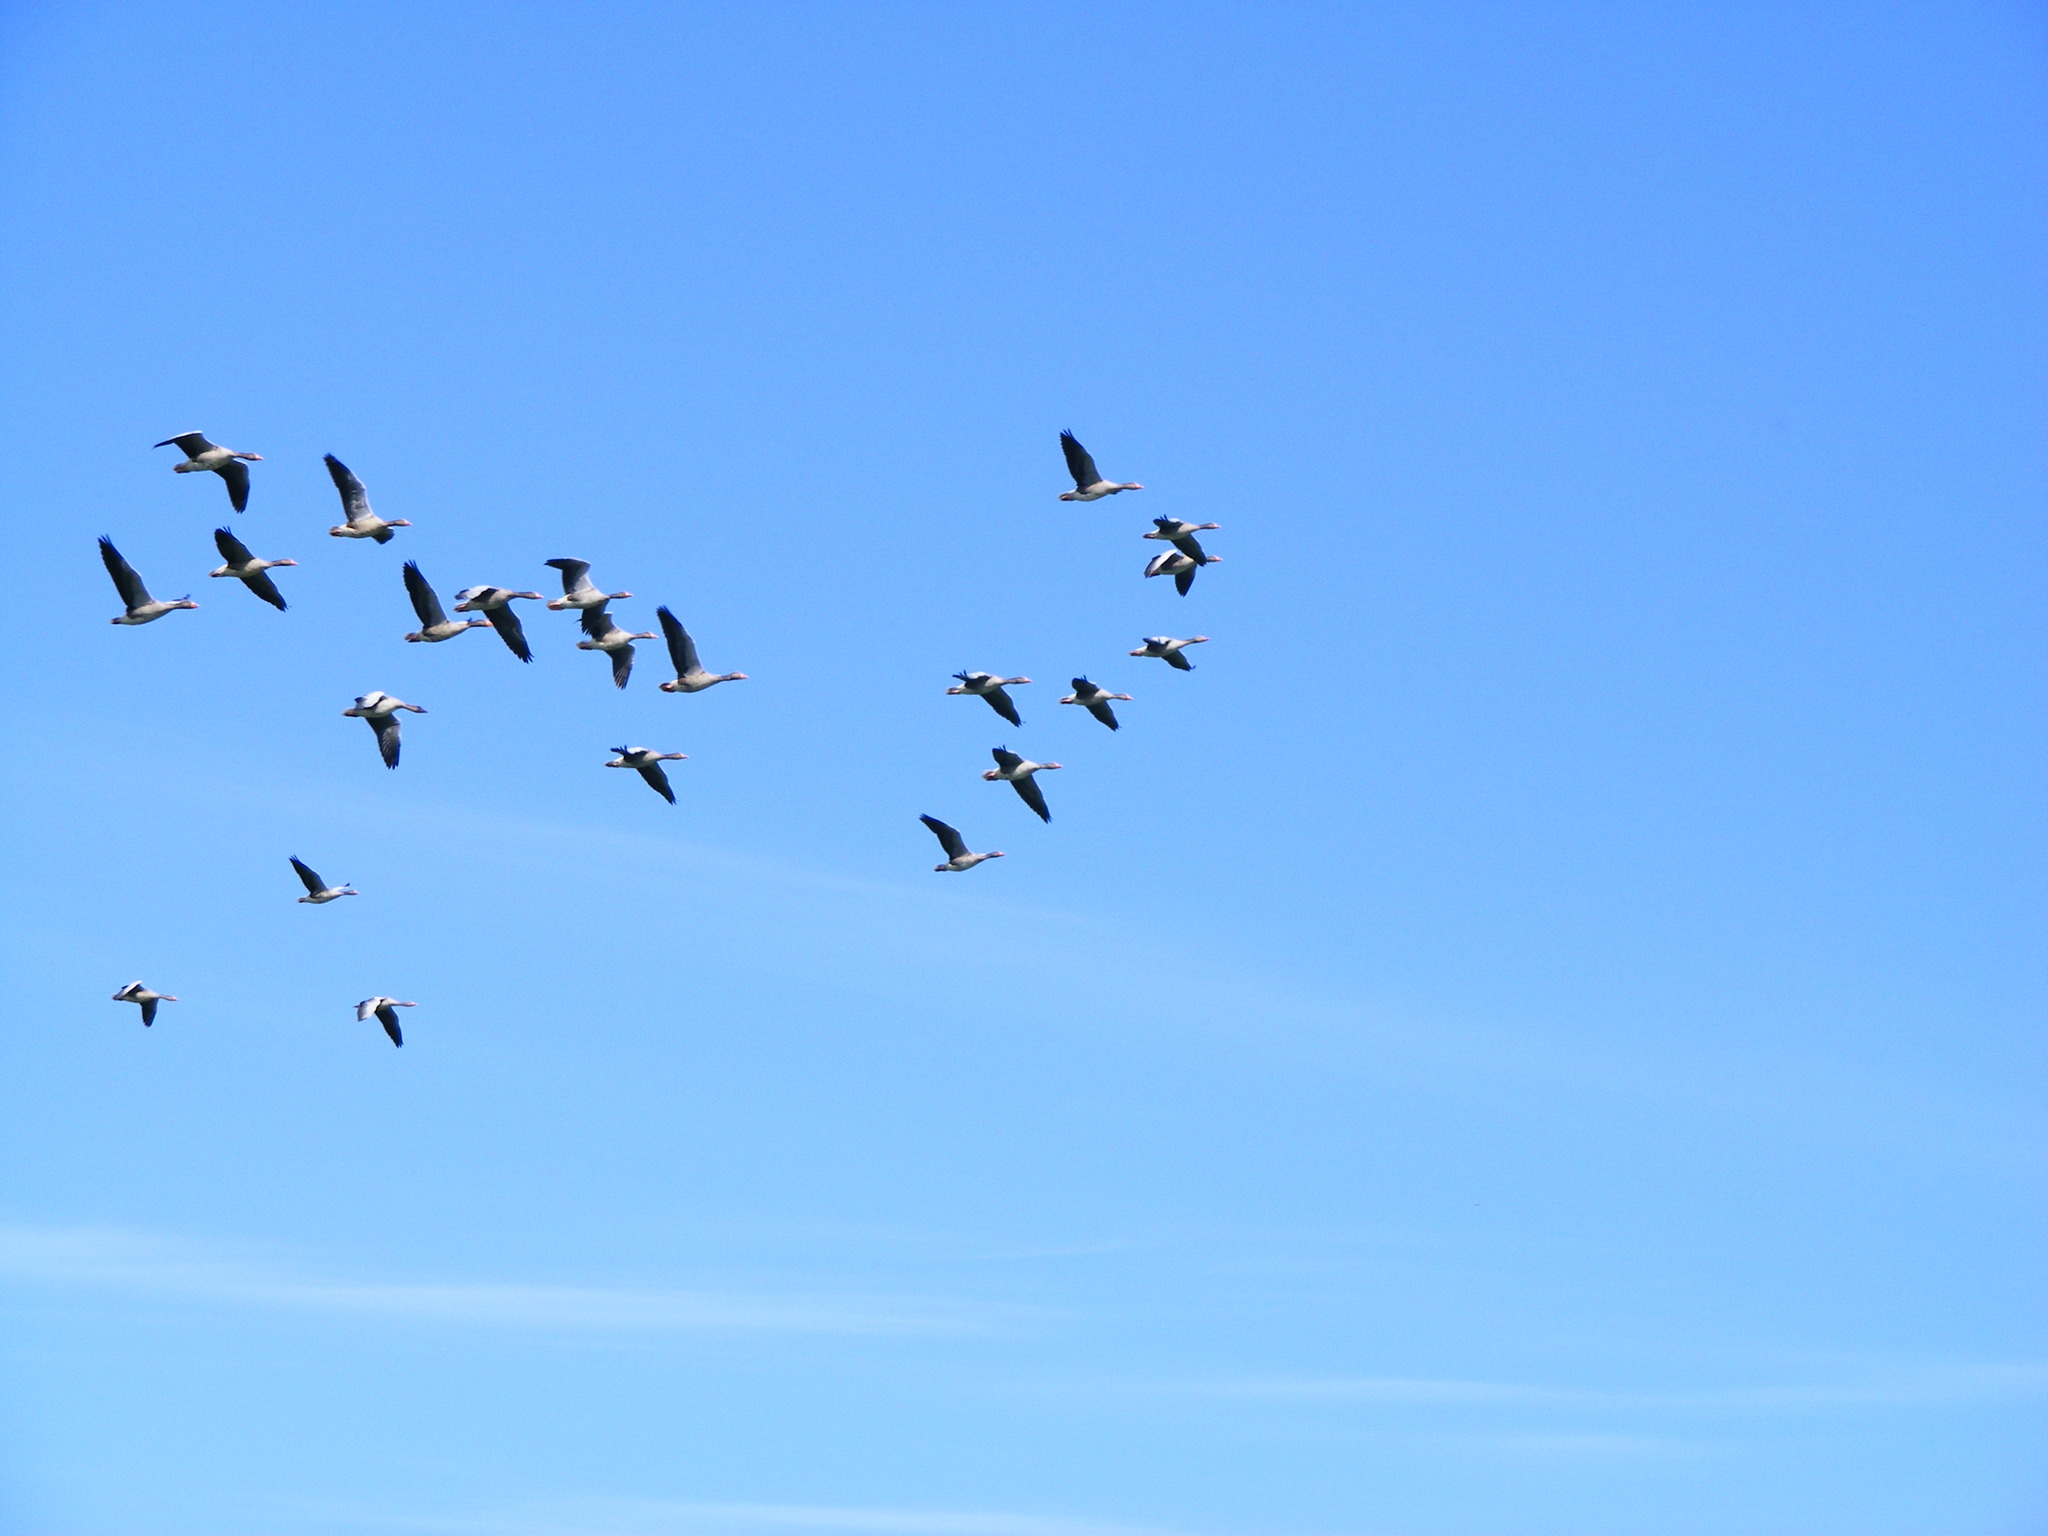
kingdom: Animalia
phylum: Chordata
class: Aves
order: Anseriformes
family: Anatidae
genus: Anser
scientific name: Anser anser
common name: Greylag goose
